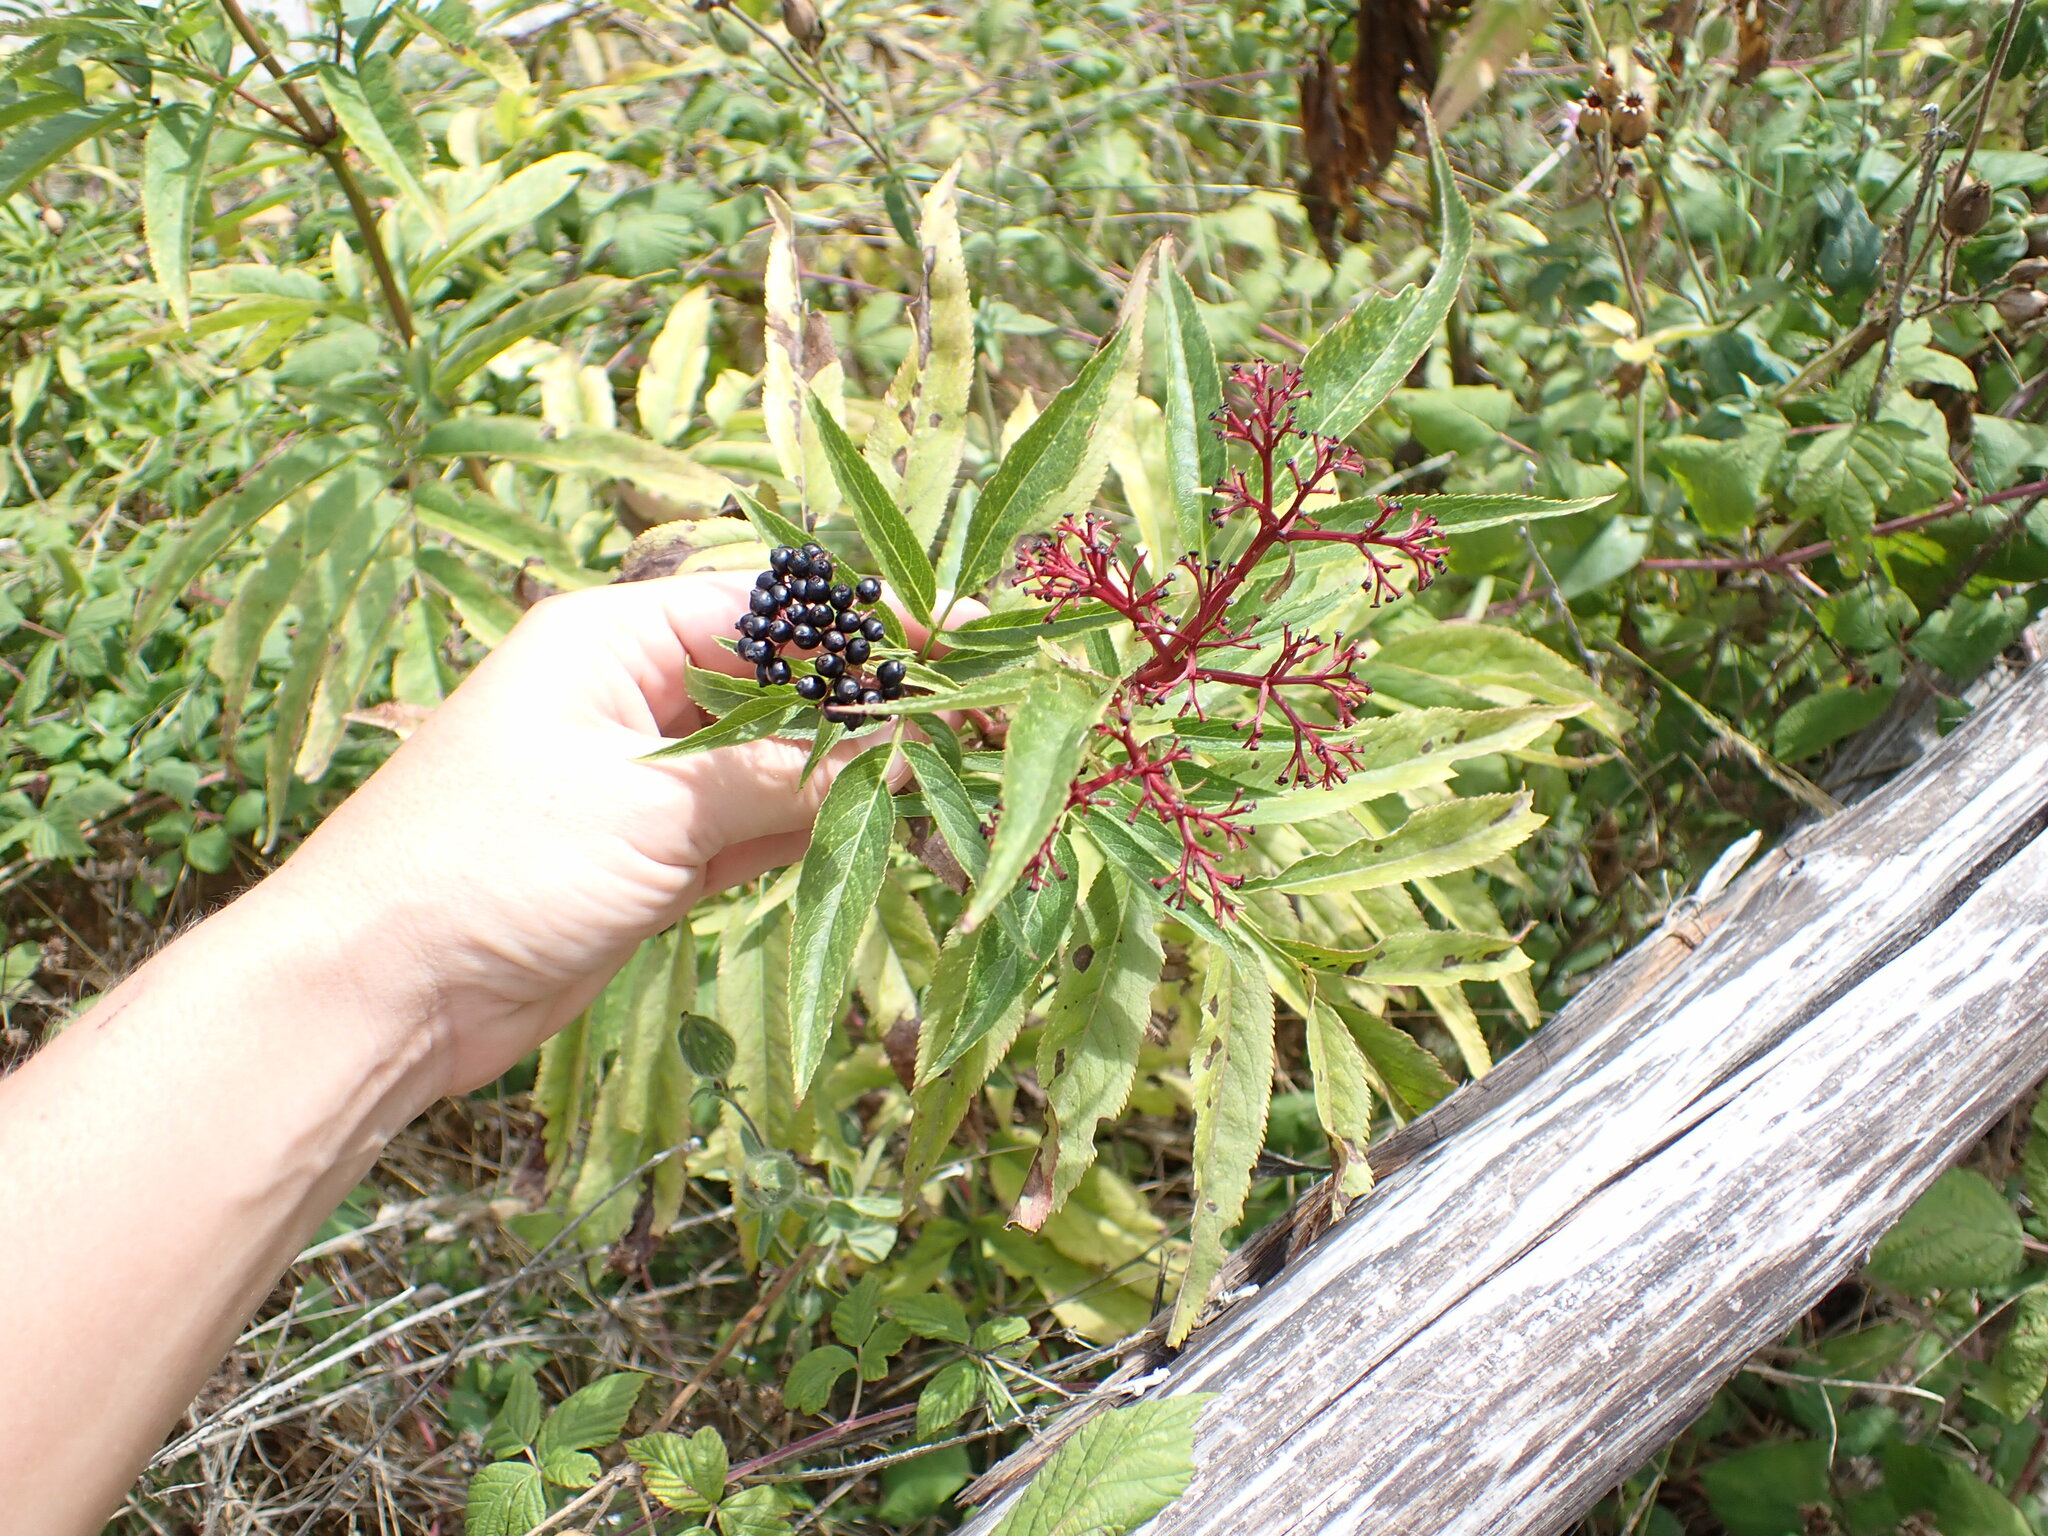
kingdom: Plantae
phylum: Tracheophyta
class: Magnoliopsida
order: Dipsacales
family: Viburnaceae
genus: Sambucus
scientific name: Sambucus ebulus
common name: Dwarf elder
